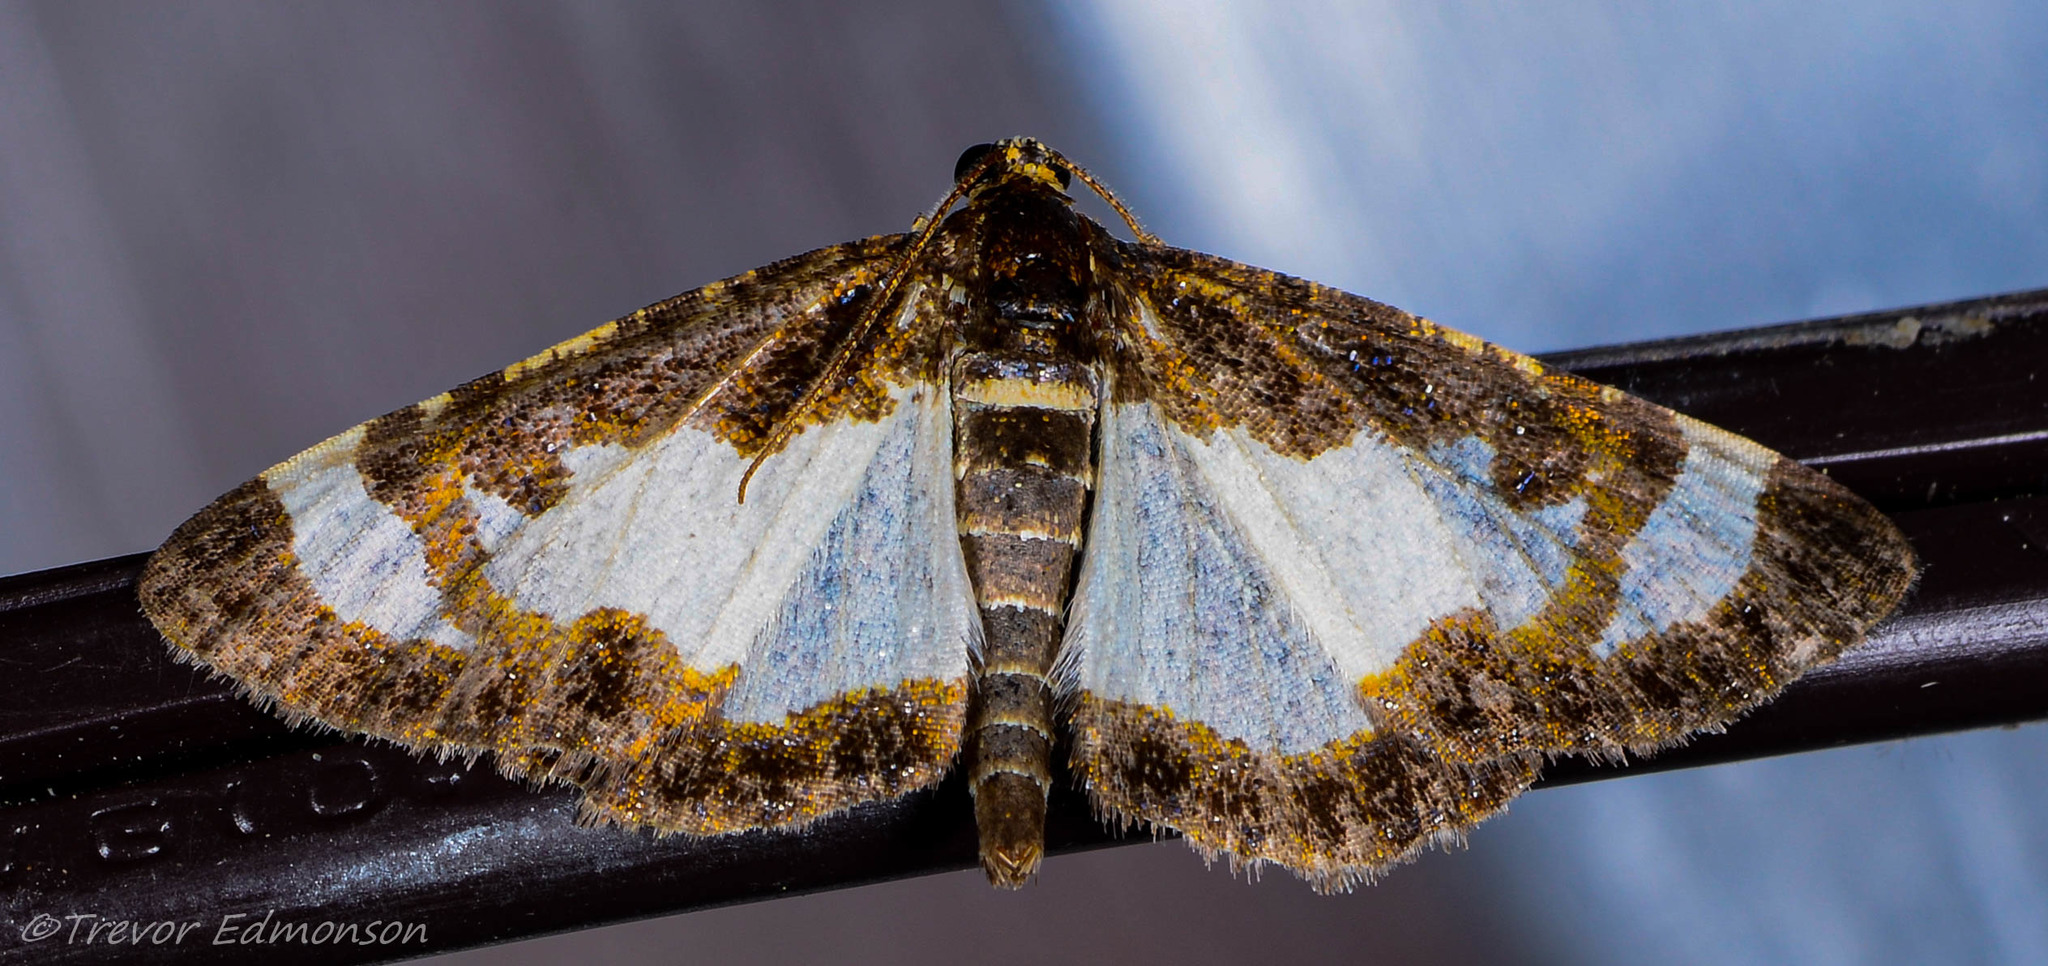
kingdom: Animalia
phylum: Arthropoda
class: Insecta
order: Lepidoptera
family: Geometridae
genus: Heliomata
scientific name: Heliomata cycladata
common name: Common spring moth
